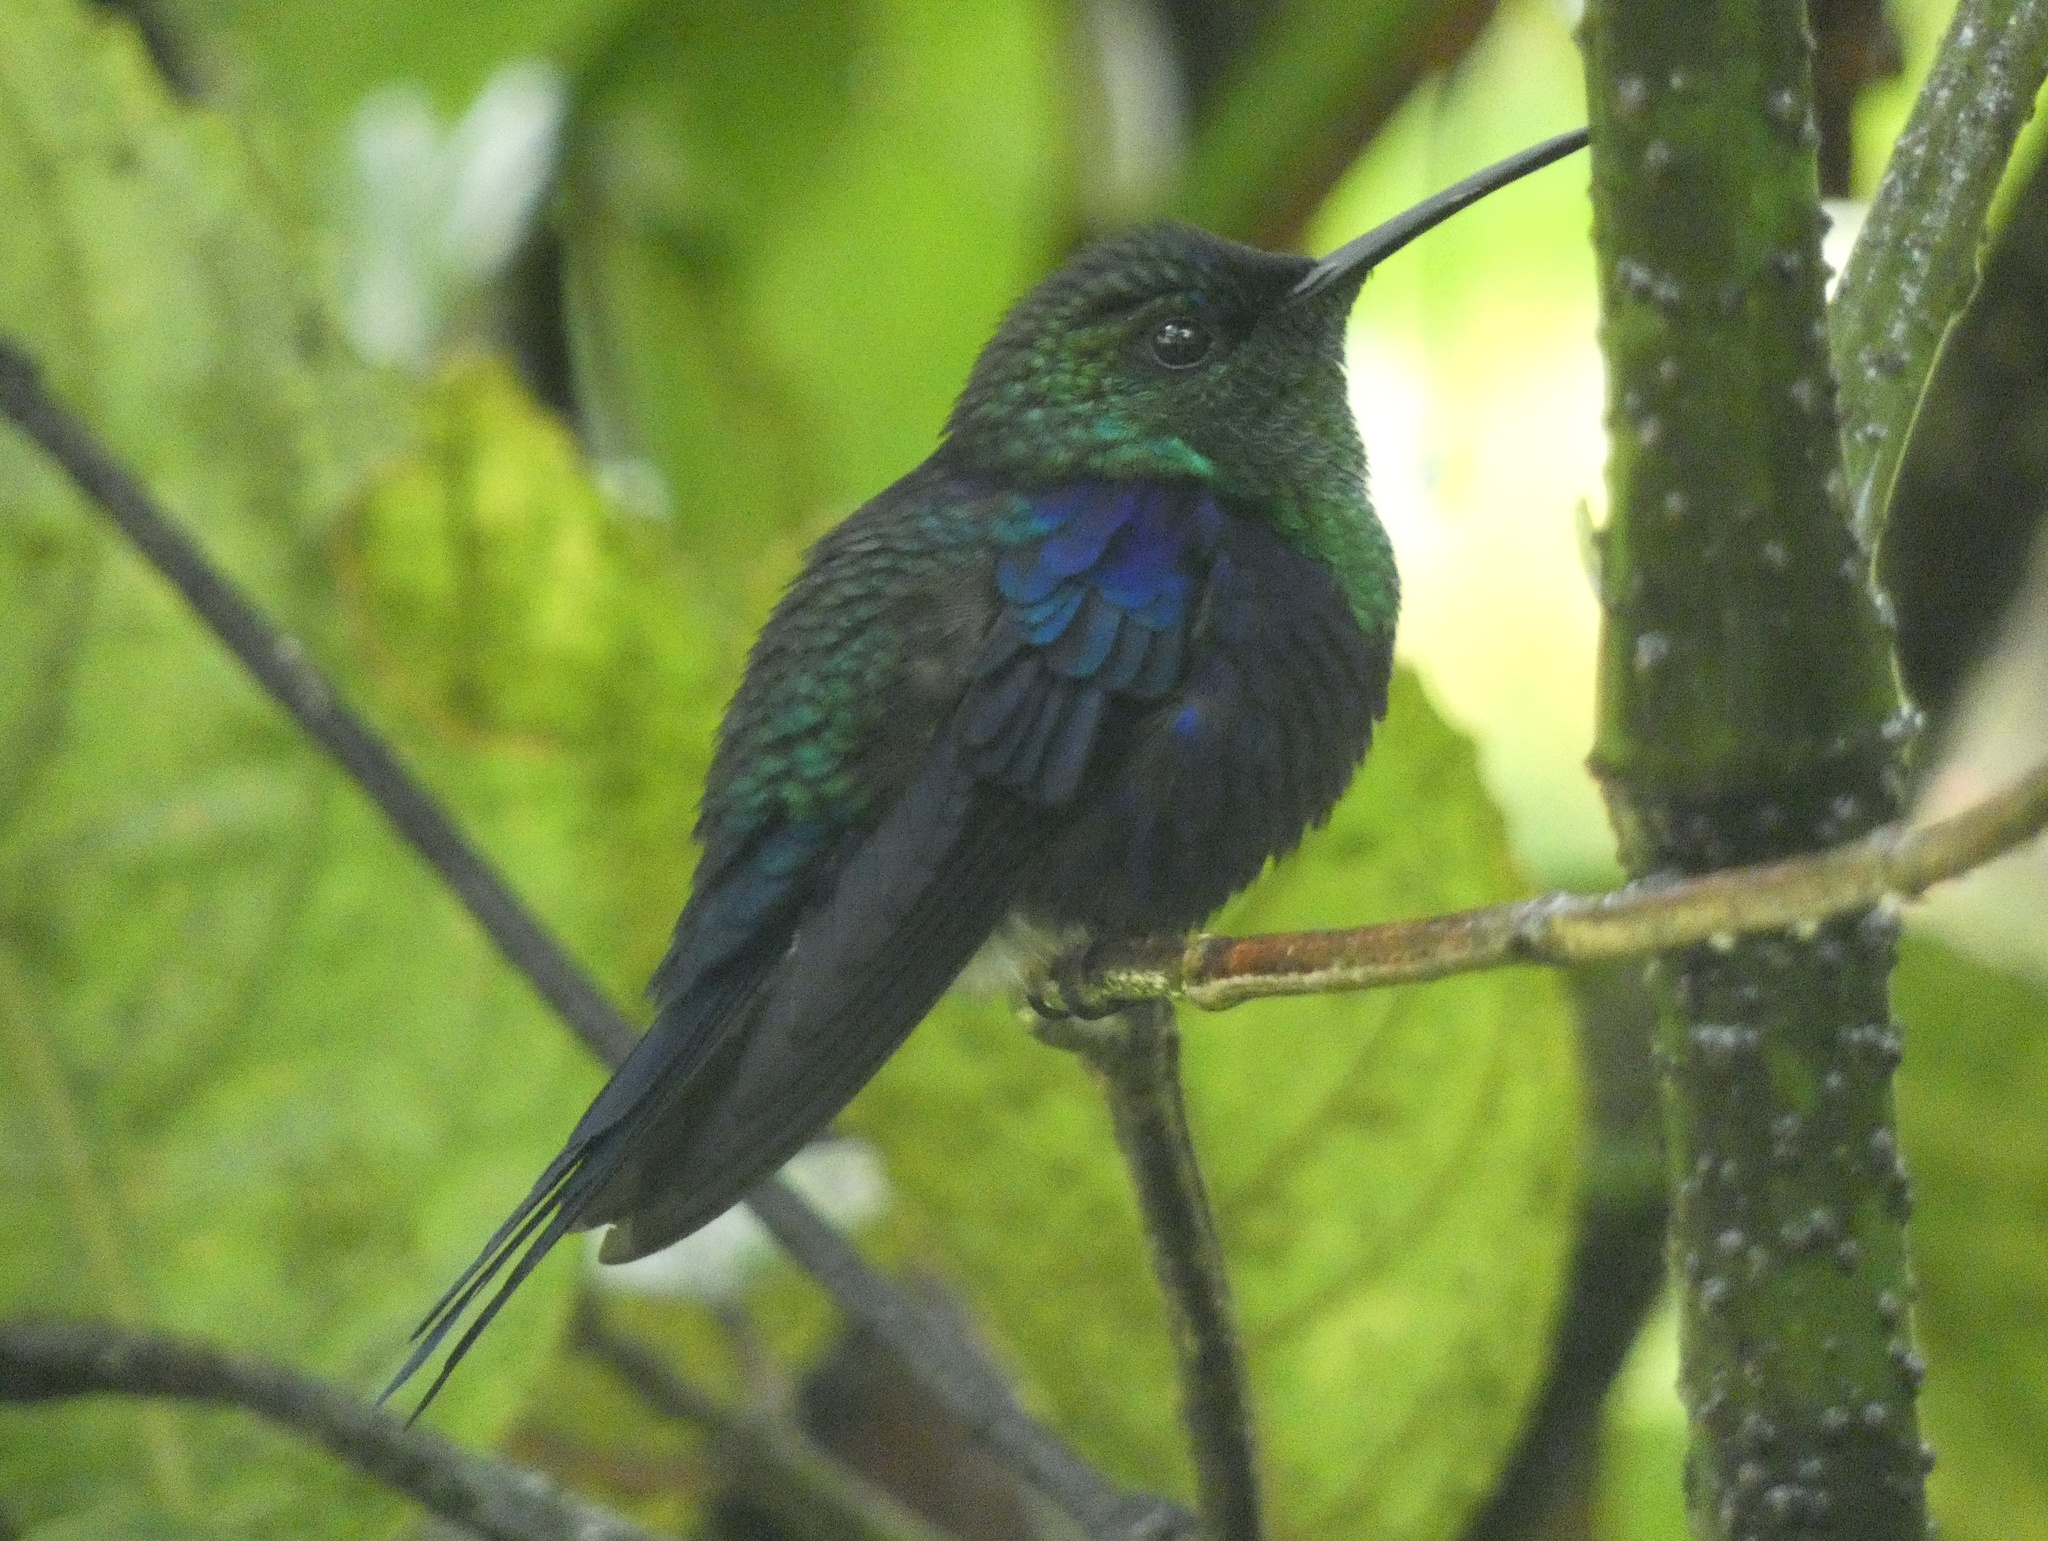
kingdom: Animalia
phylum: Chordata
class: Aves
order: Apodiformes
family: Trochilidae
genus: Thalurania
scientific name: Thalurania colombica
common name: Crowned woodnymph
